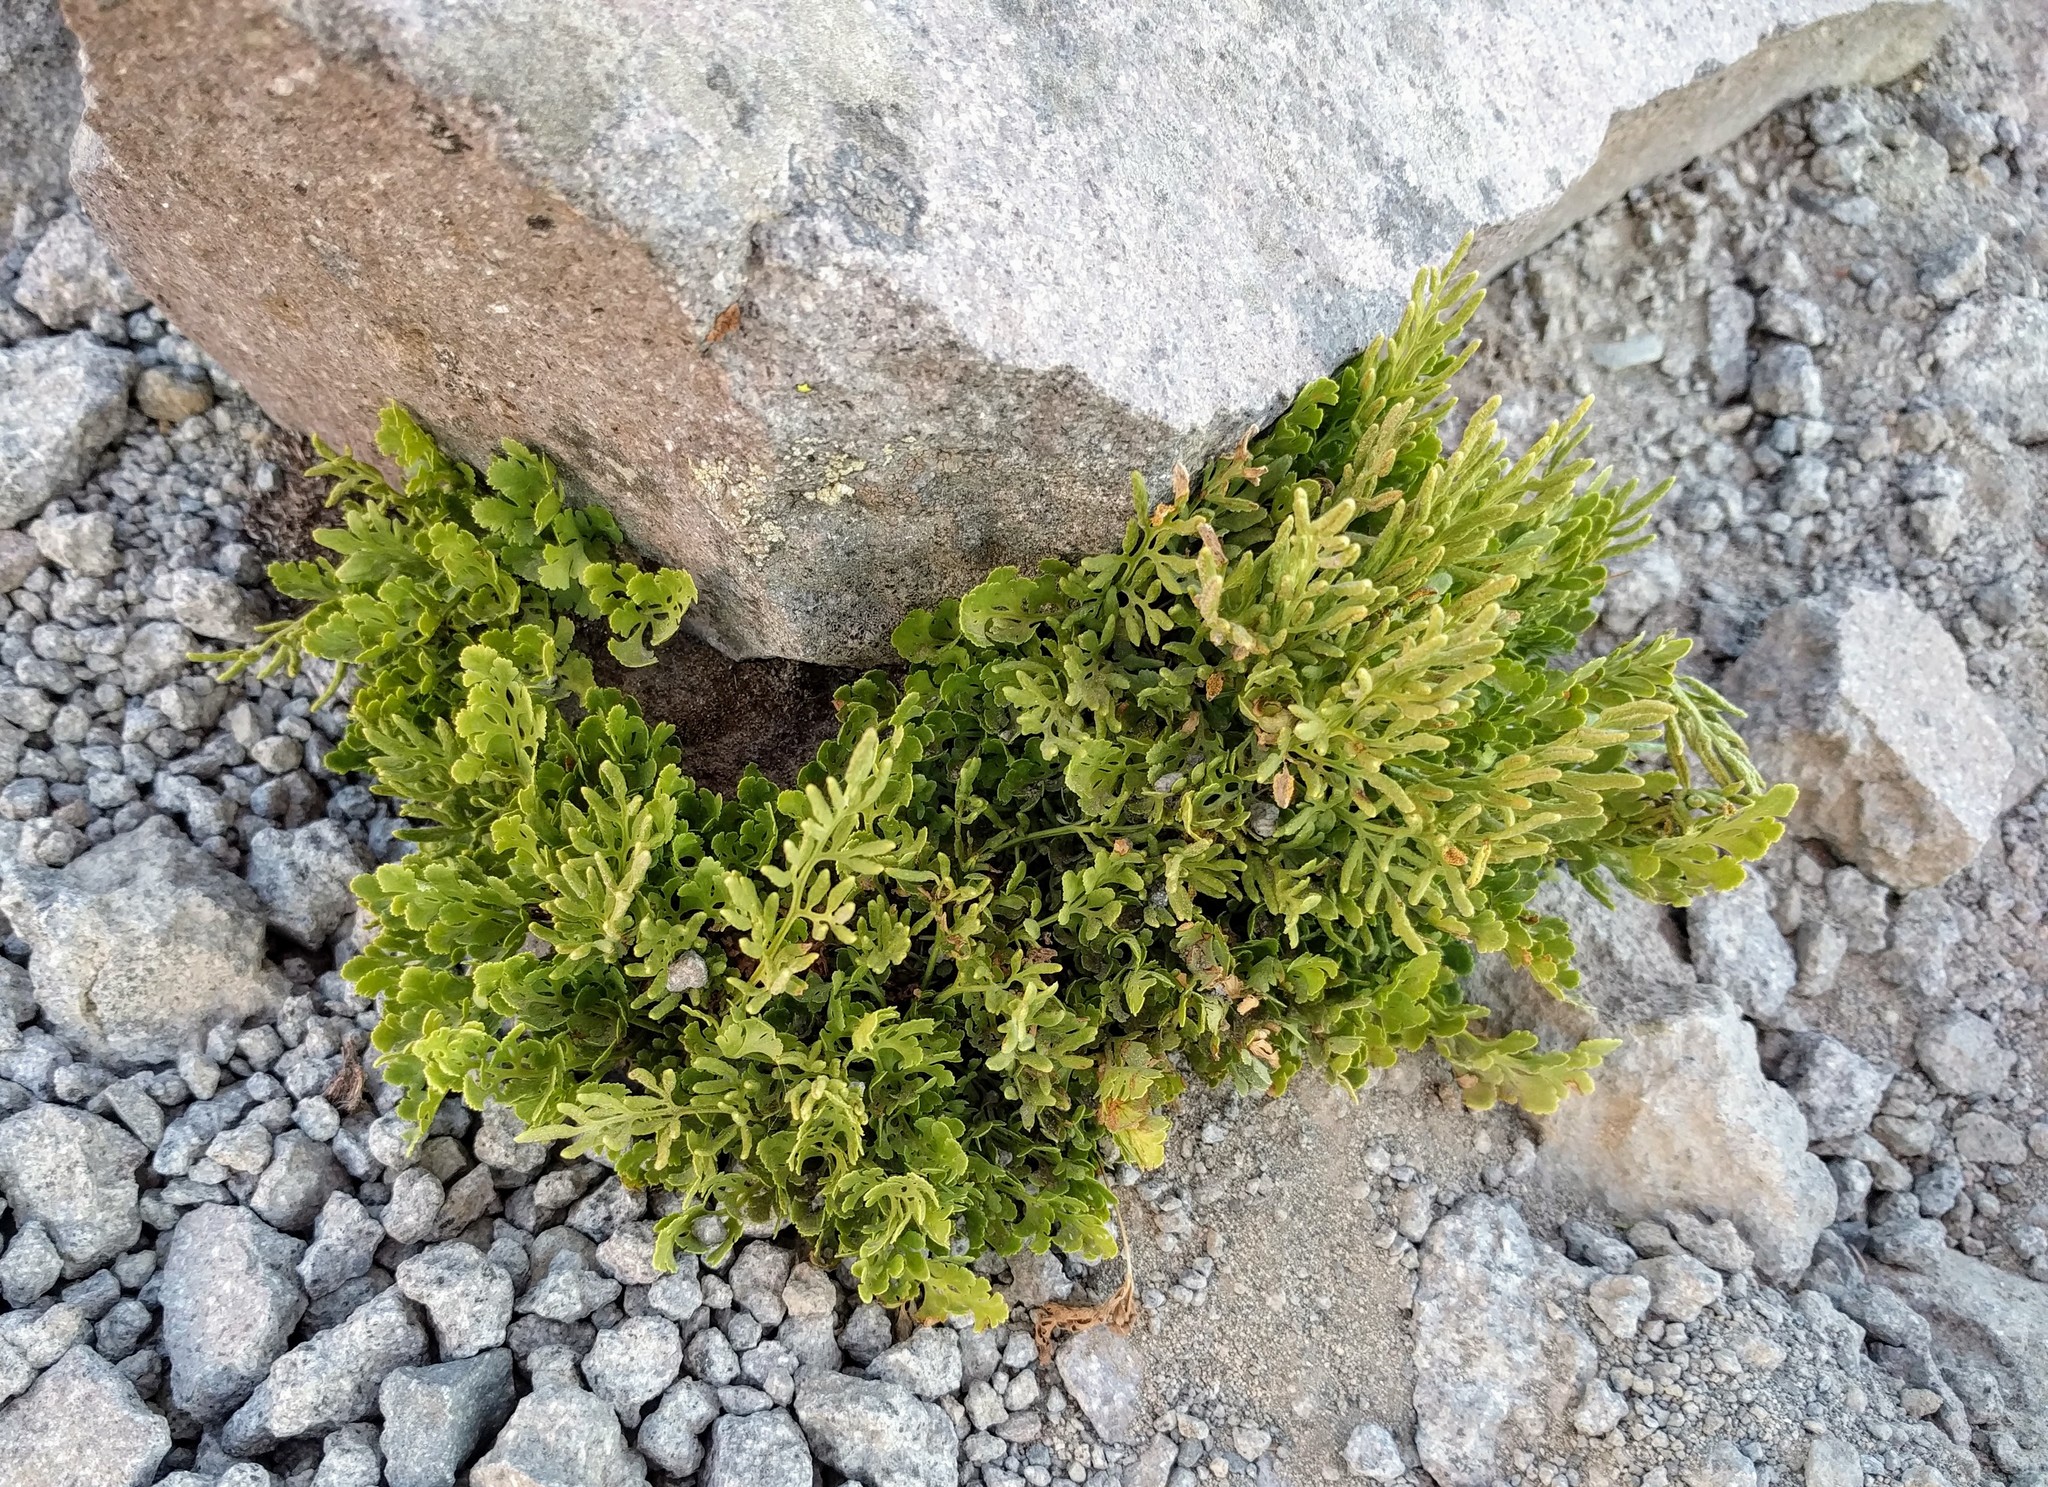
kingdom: Plantae
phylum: Tracheophyta
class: Polypodiopsida
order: Polypodiales
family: Pteridaceae
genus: Cryptogramma
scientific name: Cryptogramma cascadensis
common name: Cascade parsley fern
